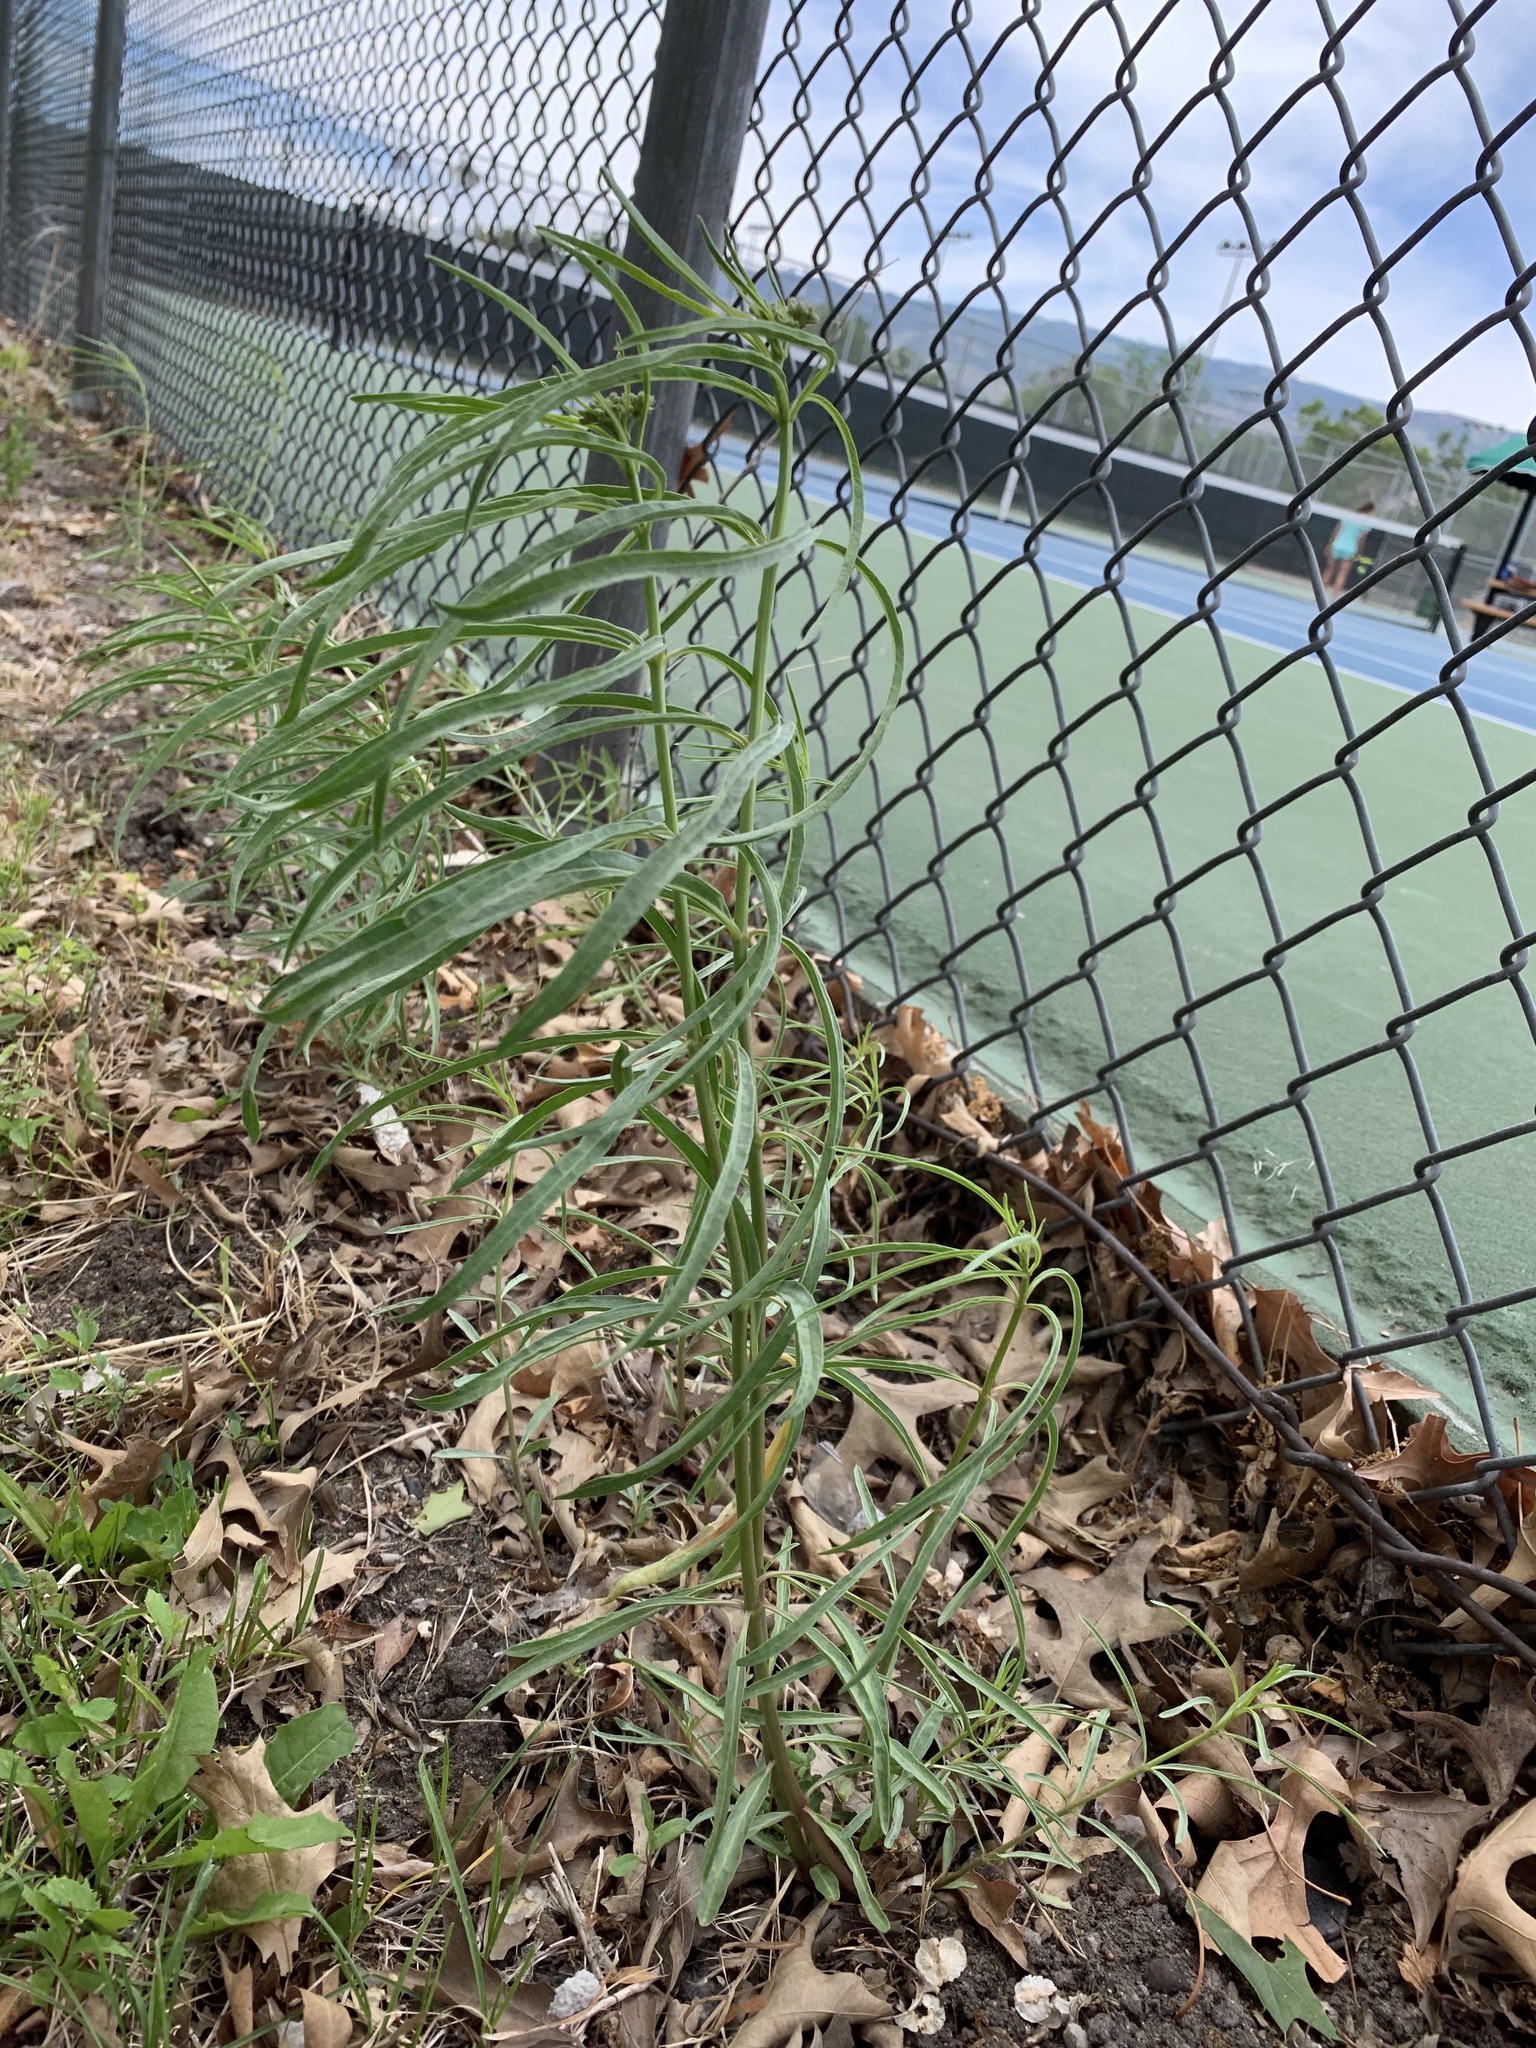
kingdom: Plantae
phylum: Tracheophyta
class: Magnoliopsida
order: Gentianales
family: Apocynaceae
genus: Asclepias
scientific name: Asclepias fascicularis
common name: Mexican milkweed
